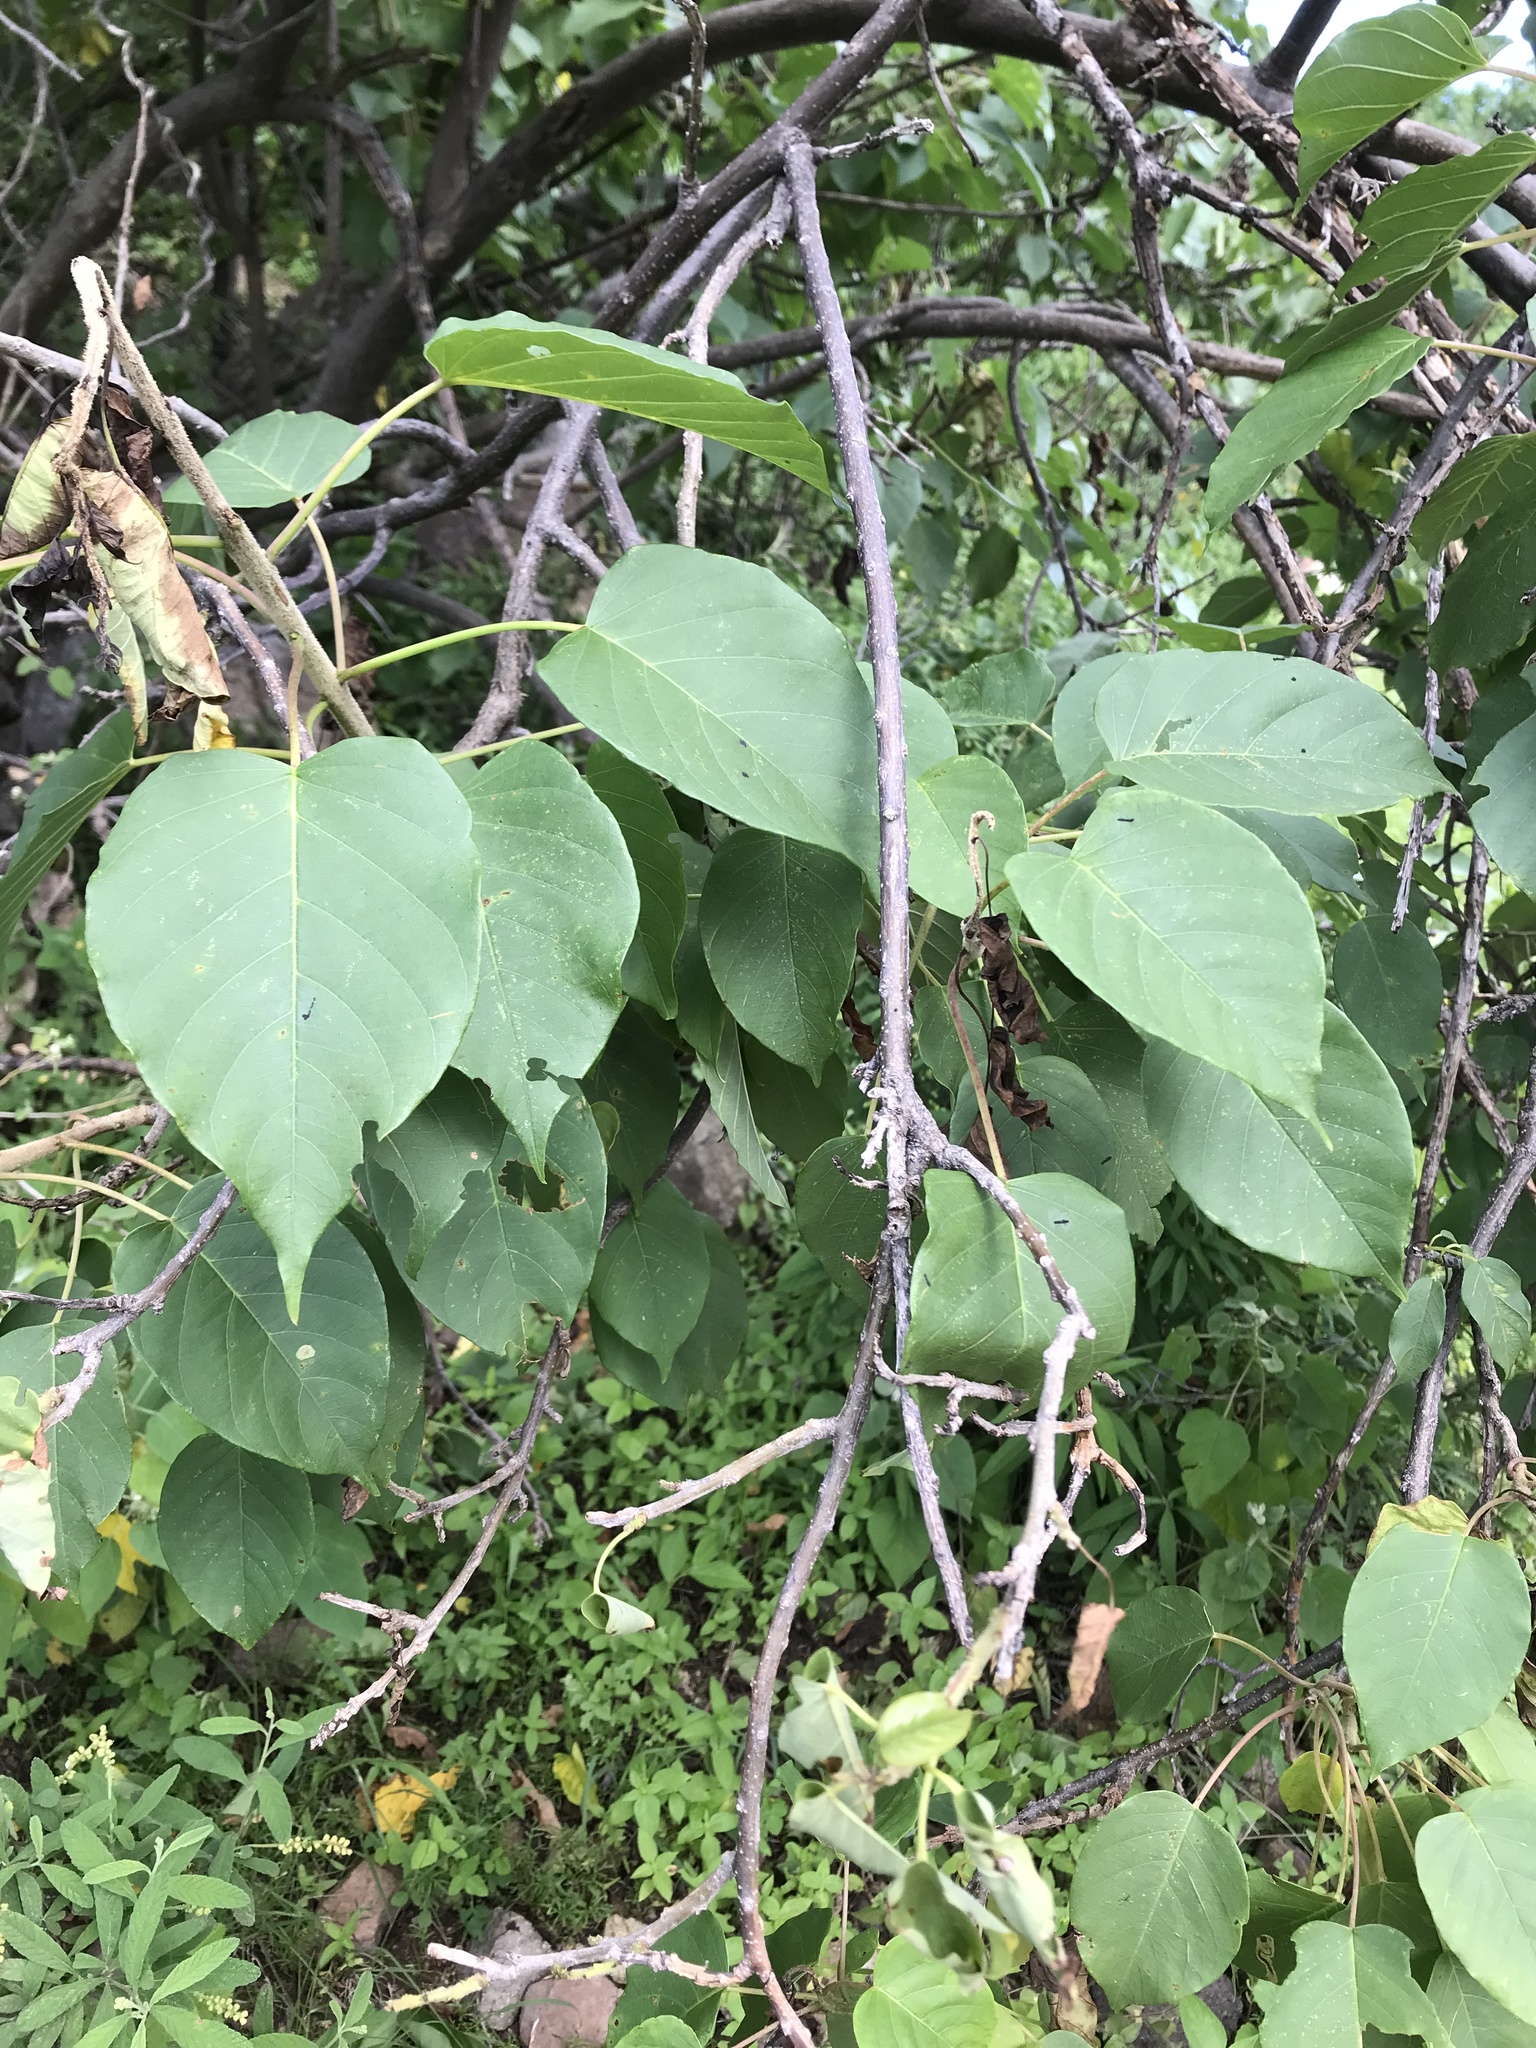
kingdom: Plantae
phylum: Tracheophyta
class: Magnoliopsida
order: Solanales
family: Convolvulaceae
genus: Ipomoea
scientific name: Ipomoea pauciflora
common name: Tree morningglory
